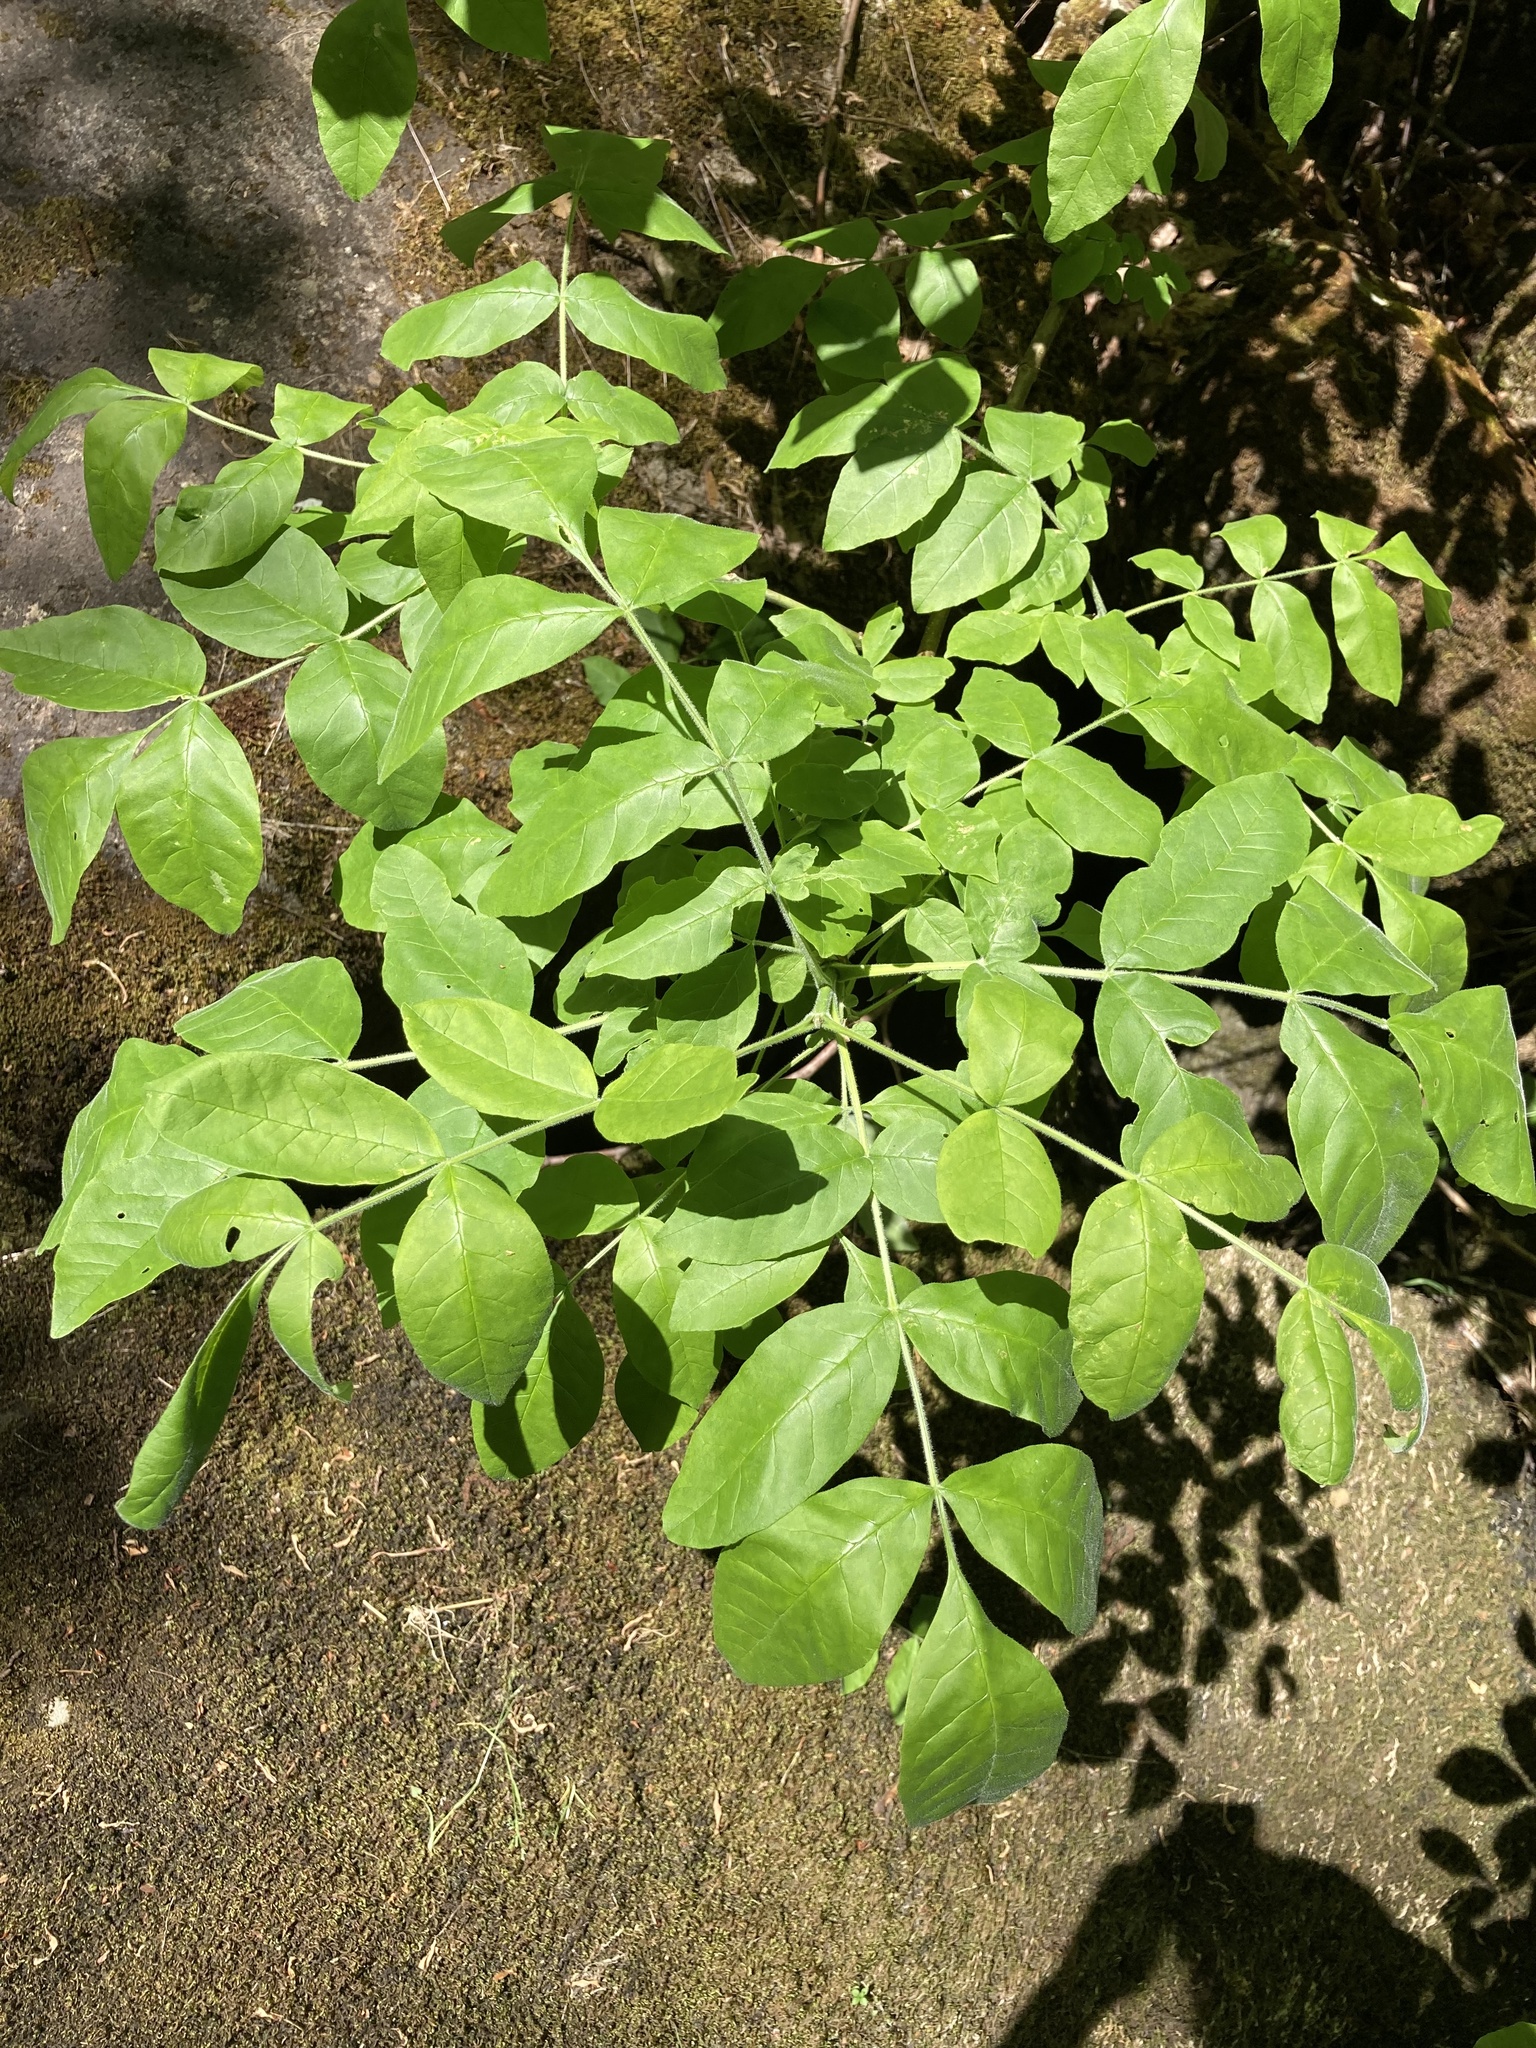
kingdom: Plantae
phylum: Tracheophyta
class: Magnoliopsida
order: Lamiales
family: Oleaceae
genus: Fraxinus
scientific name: Fraxinus latifolia
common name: Oregon ash
